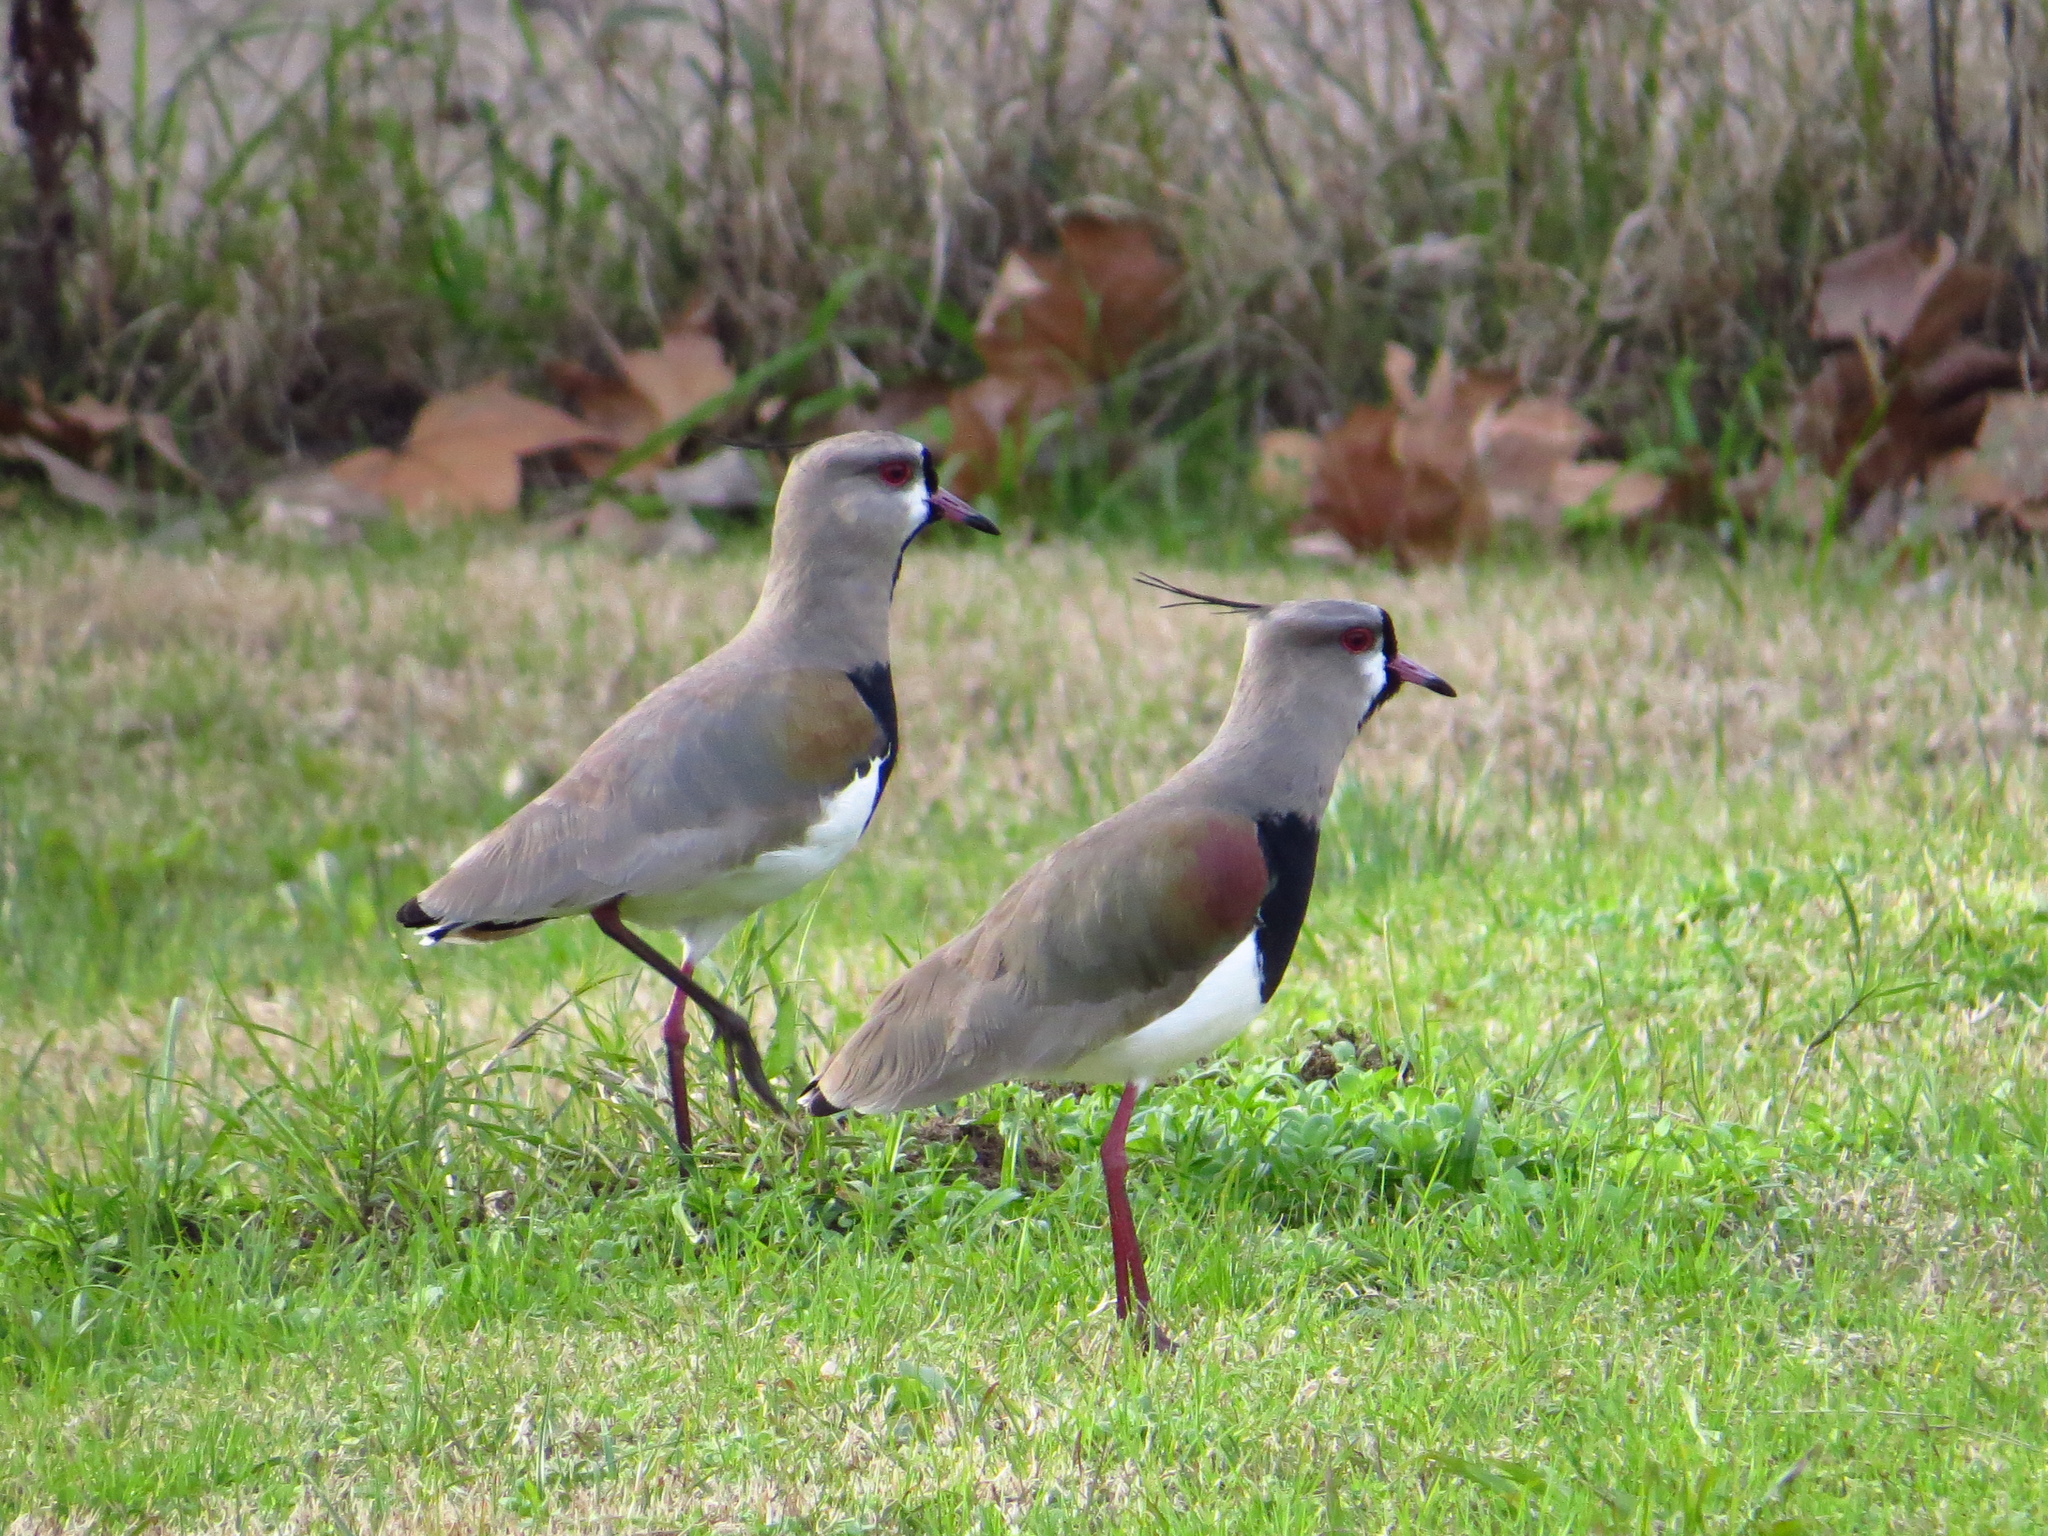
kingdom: Animalia
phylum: Chordata
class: Aves
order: Charadriiformes
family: Charadriidae
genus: Vanellus
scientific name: Vanellus chilensis
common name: Southern lapwing
